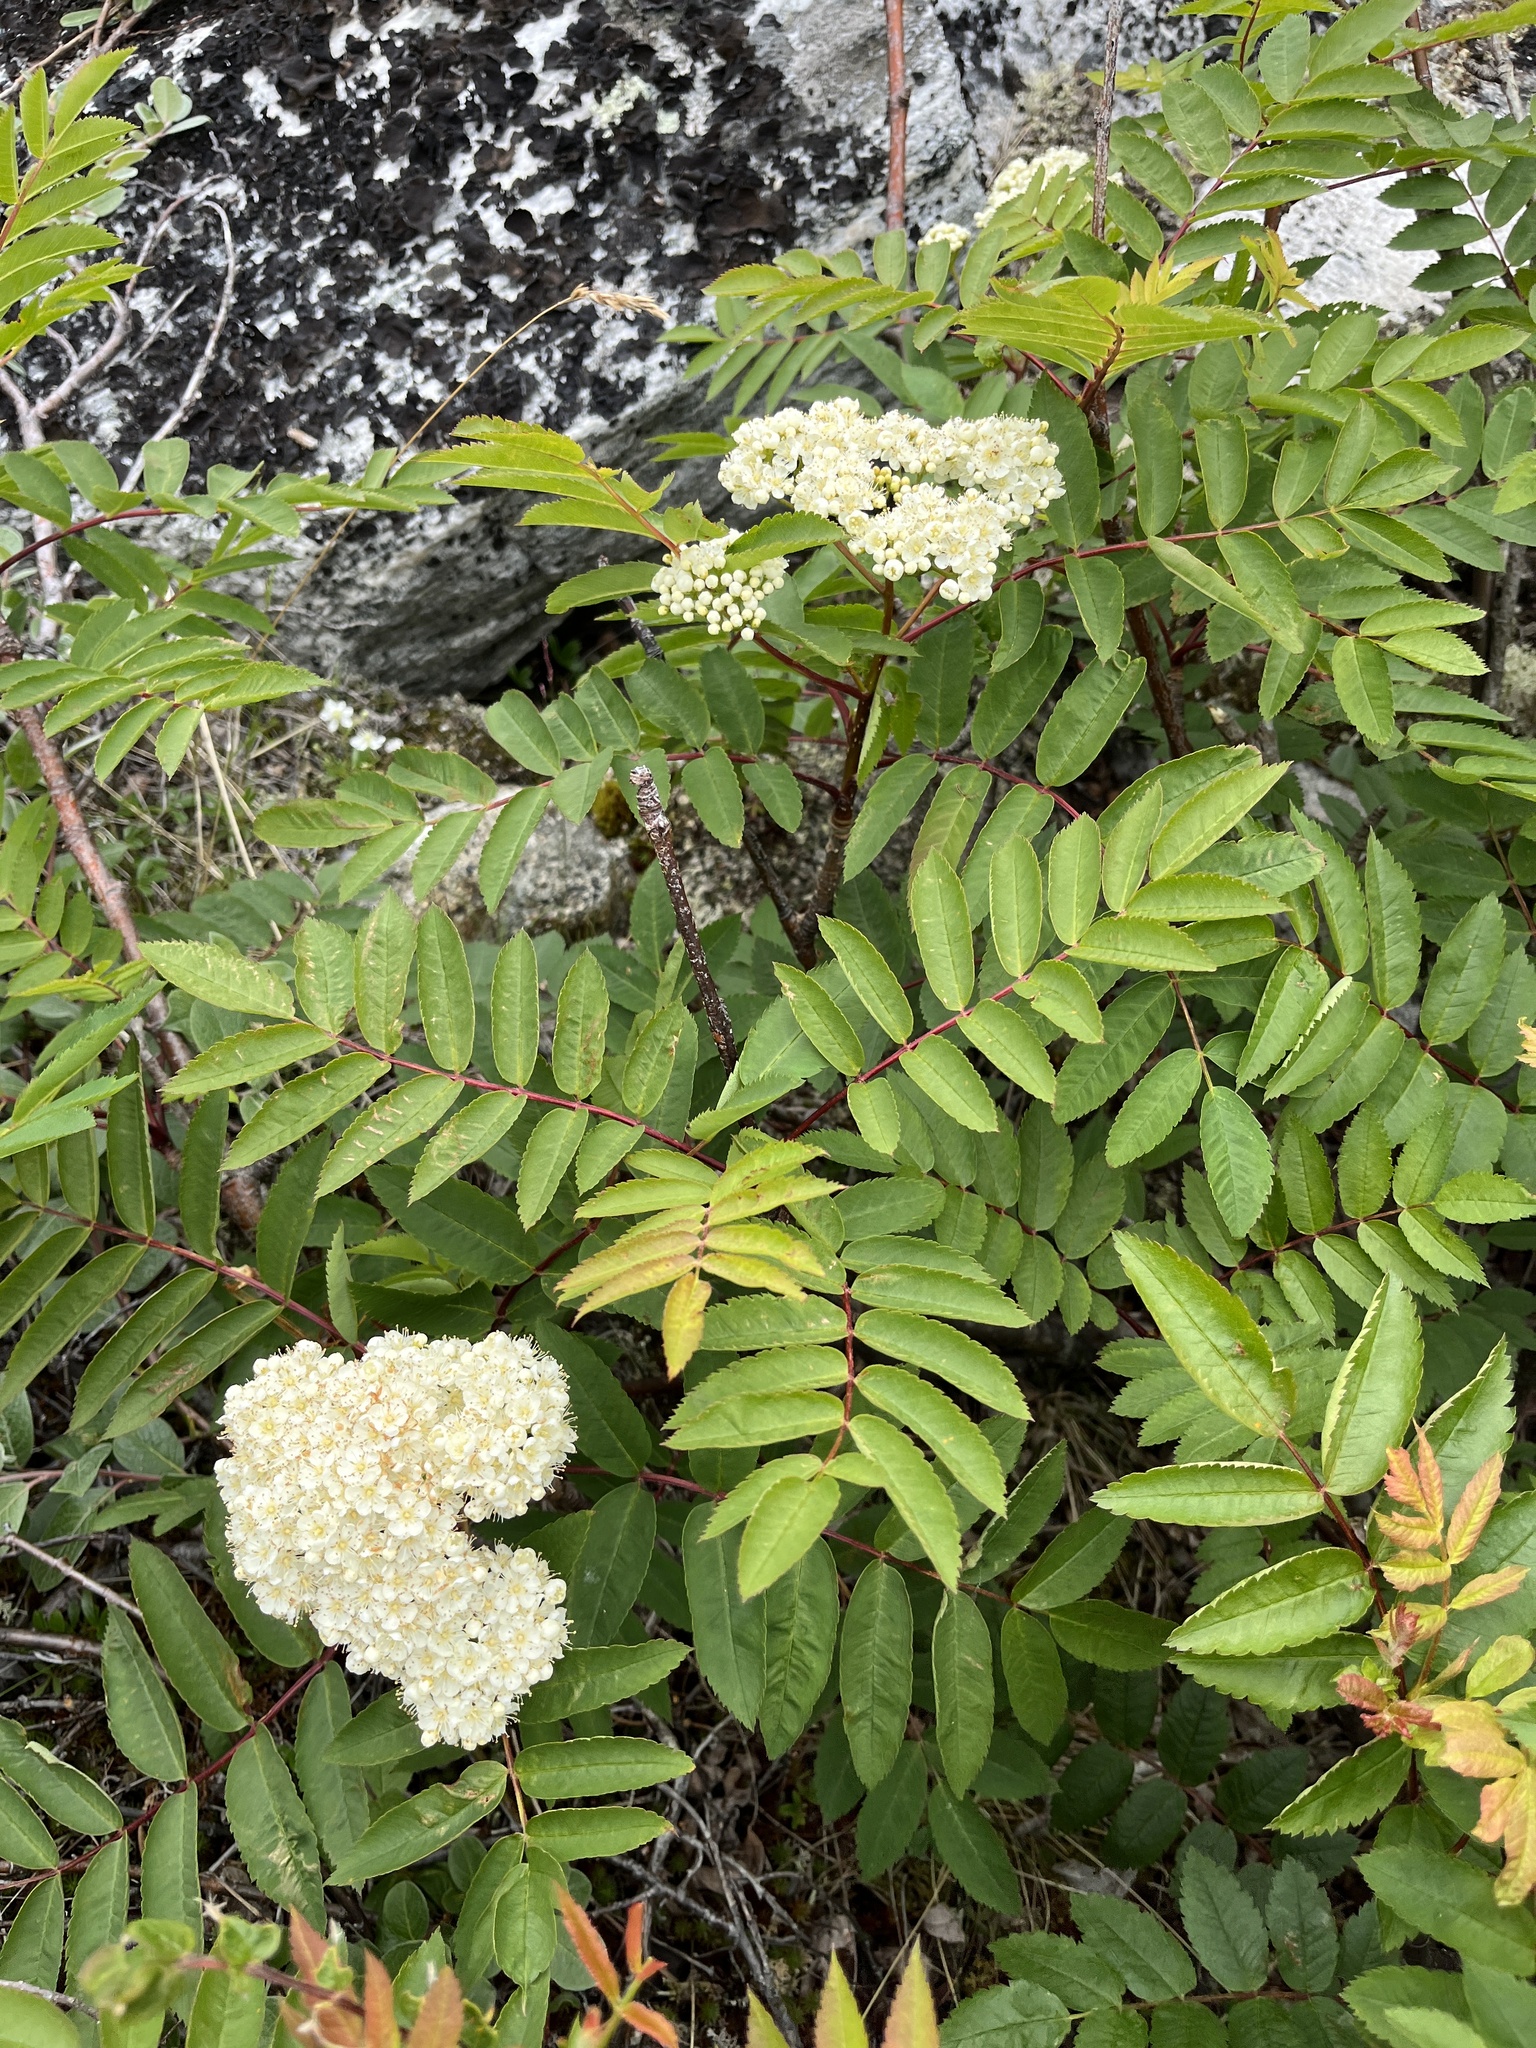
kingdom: Plantae
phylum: Tracheophyta
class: Magnoliopsida
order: Rosales
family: Rosaceae
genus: Sorbus
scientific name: Sorbus decora
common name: Northern mountain-ash
